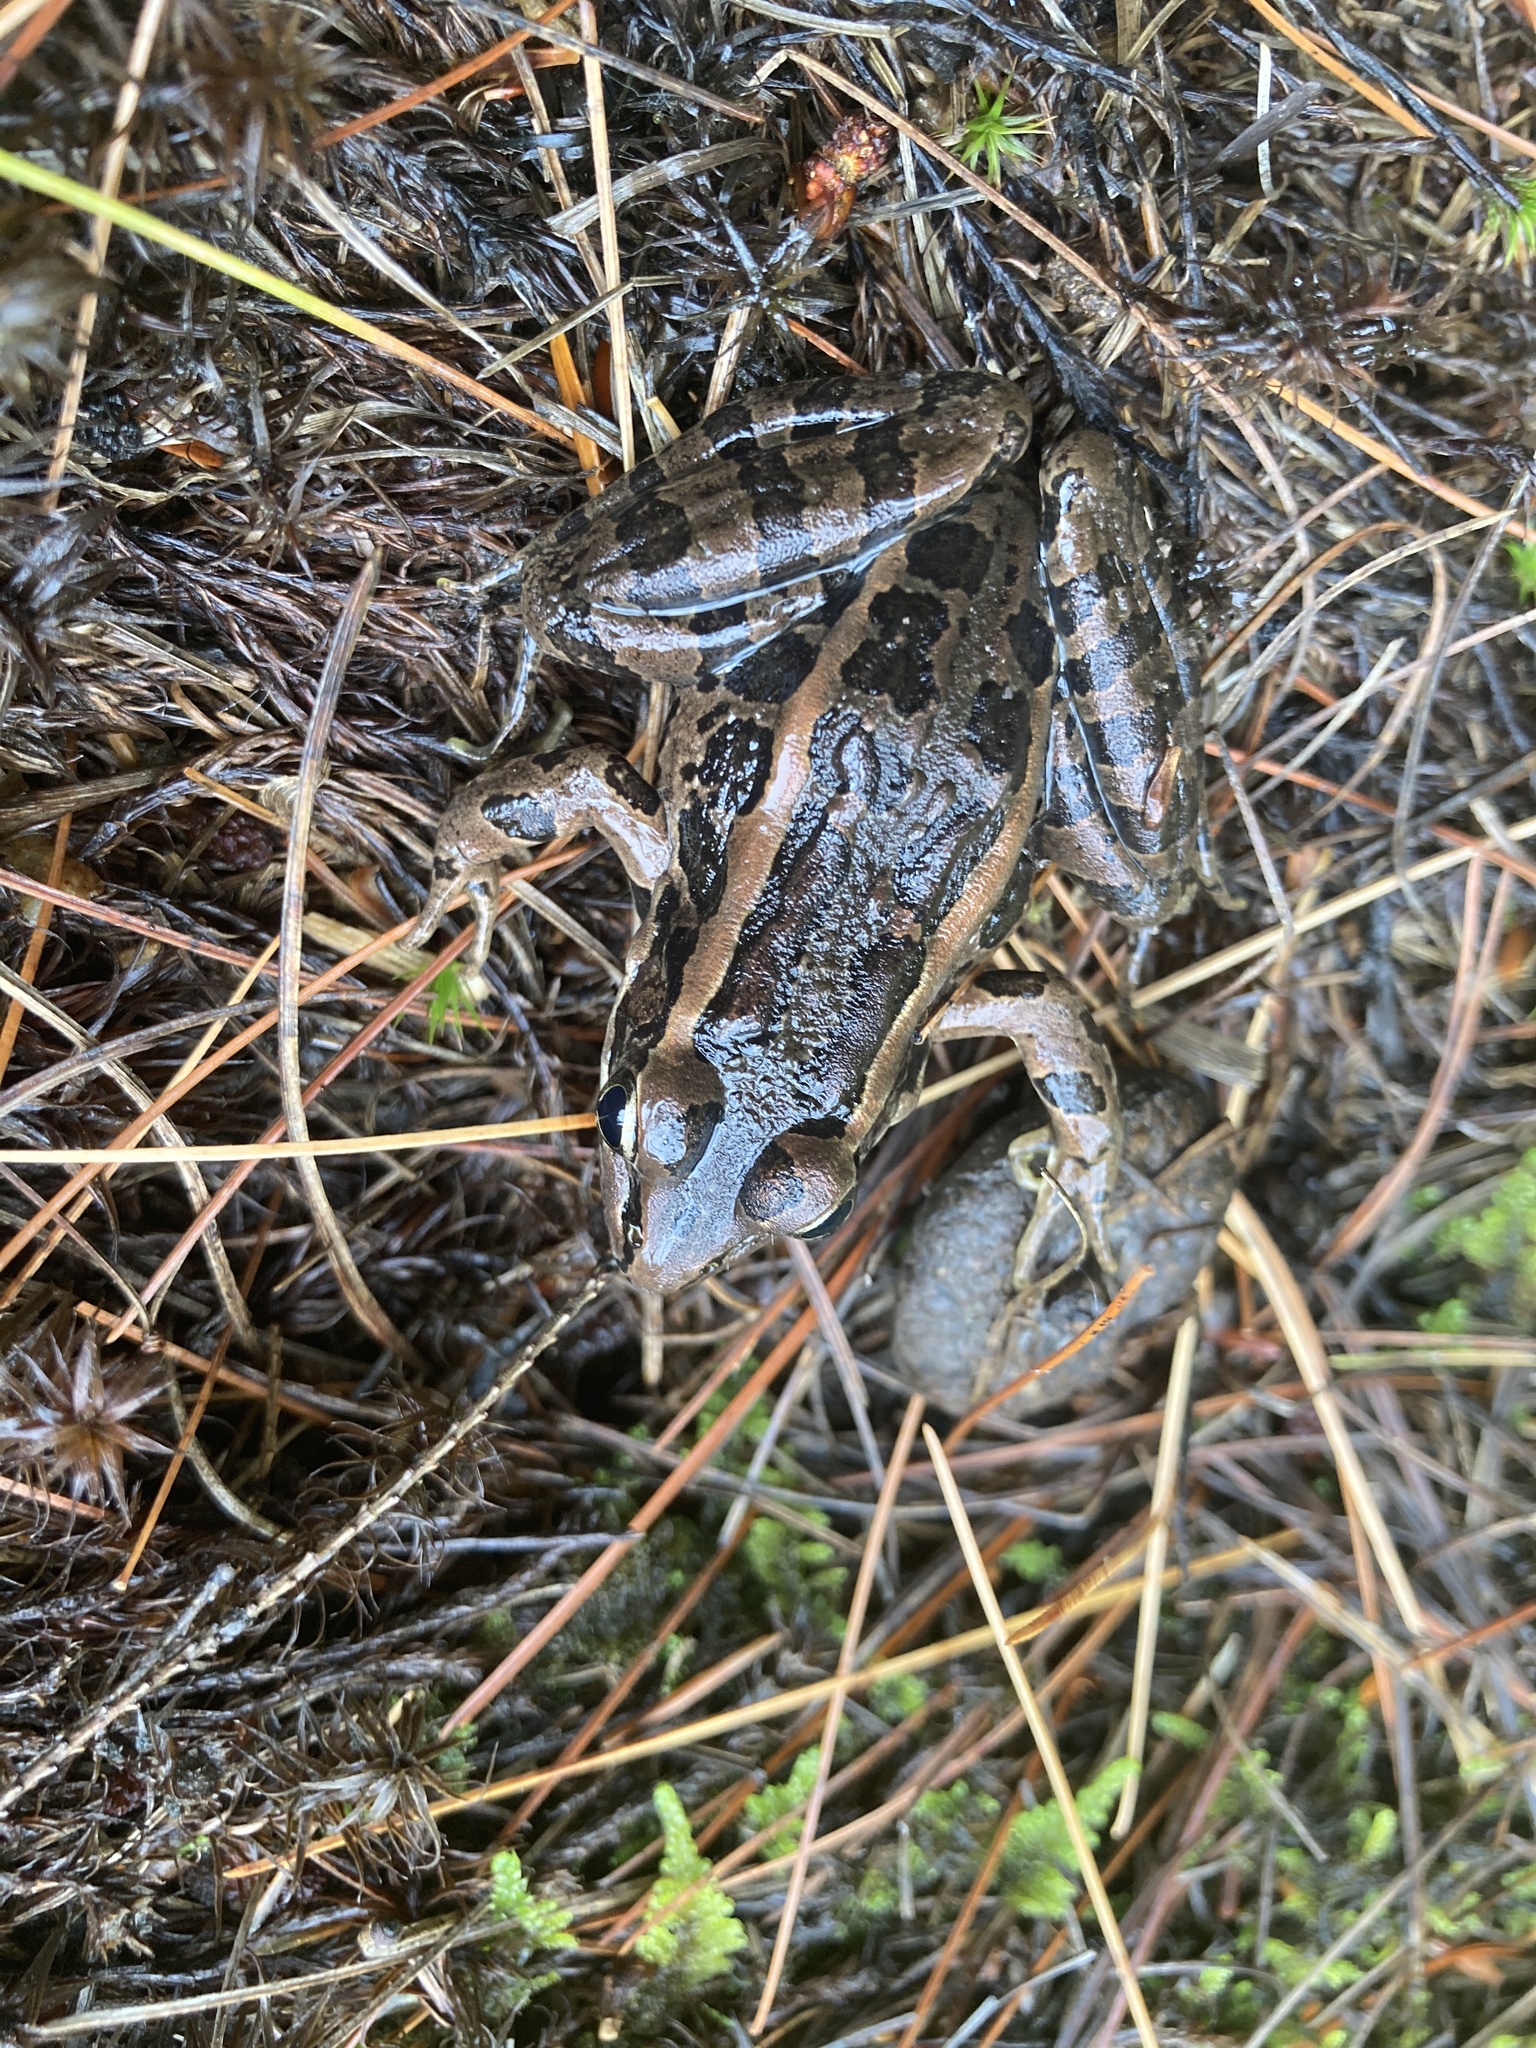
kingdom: Animalia
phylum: Chordata
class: Amphibia
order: Anura
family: Ranidae
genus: Lithobates
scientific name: Lithobates palustris
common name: Pickerel frog
